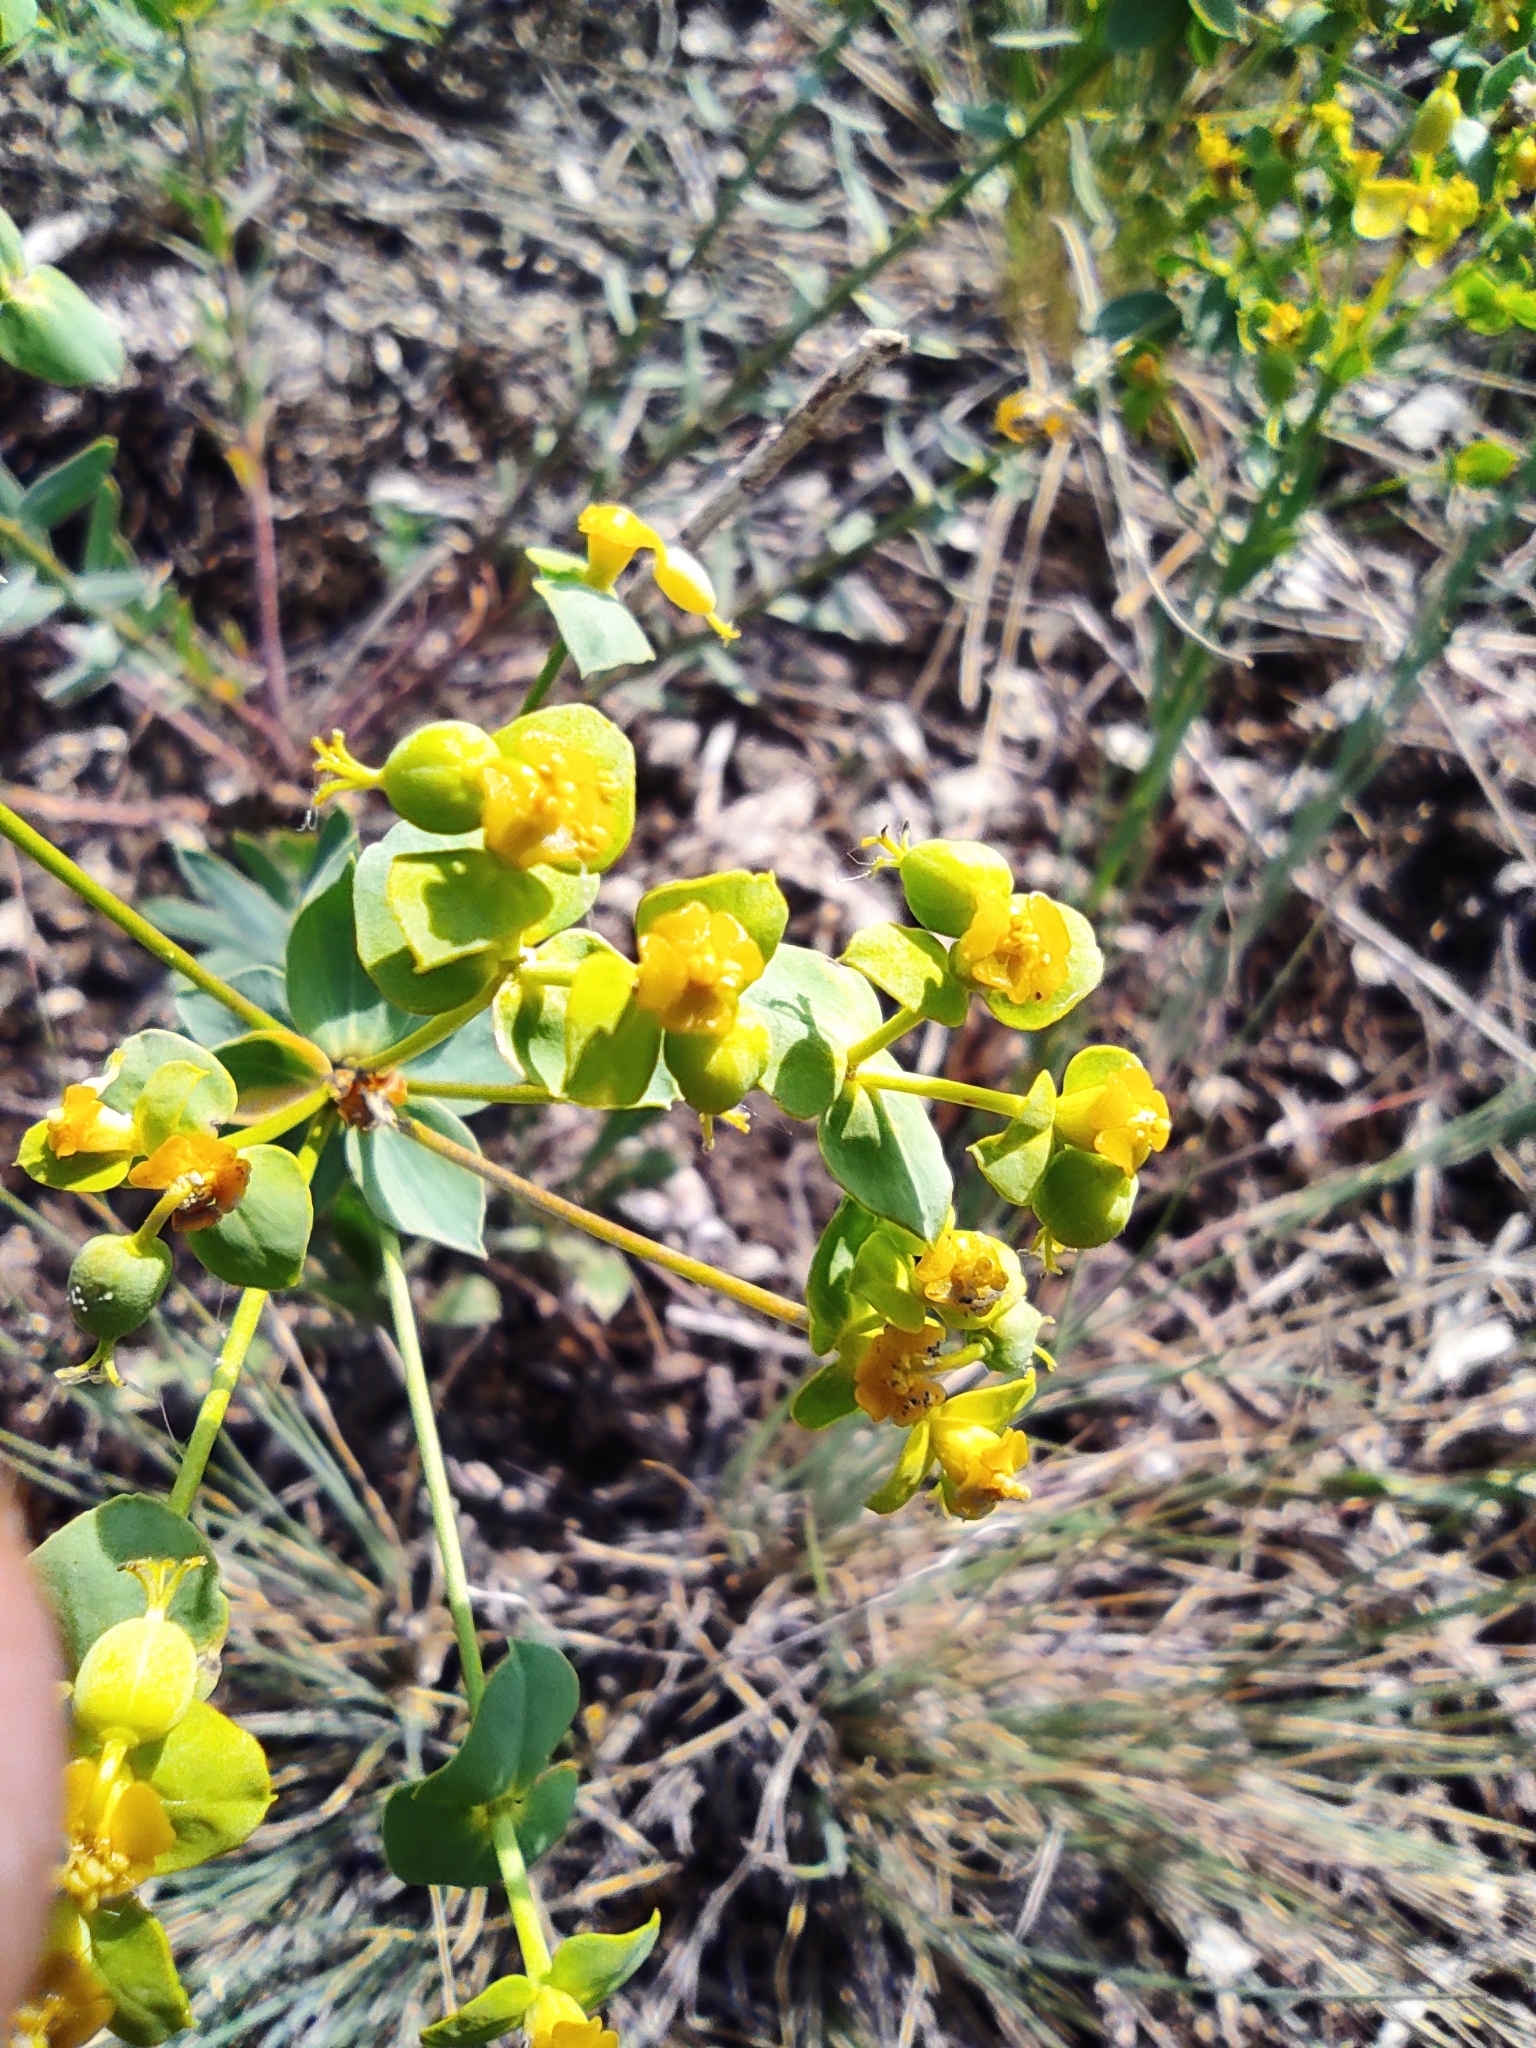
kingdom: Plantae
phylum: Tracheophyta
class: Magnoliopsida
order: Malpighiales
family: Euphorbiaceae
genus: Euphorbia
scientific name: Euphorbia stepposa
